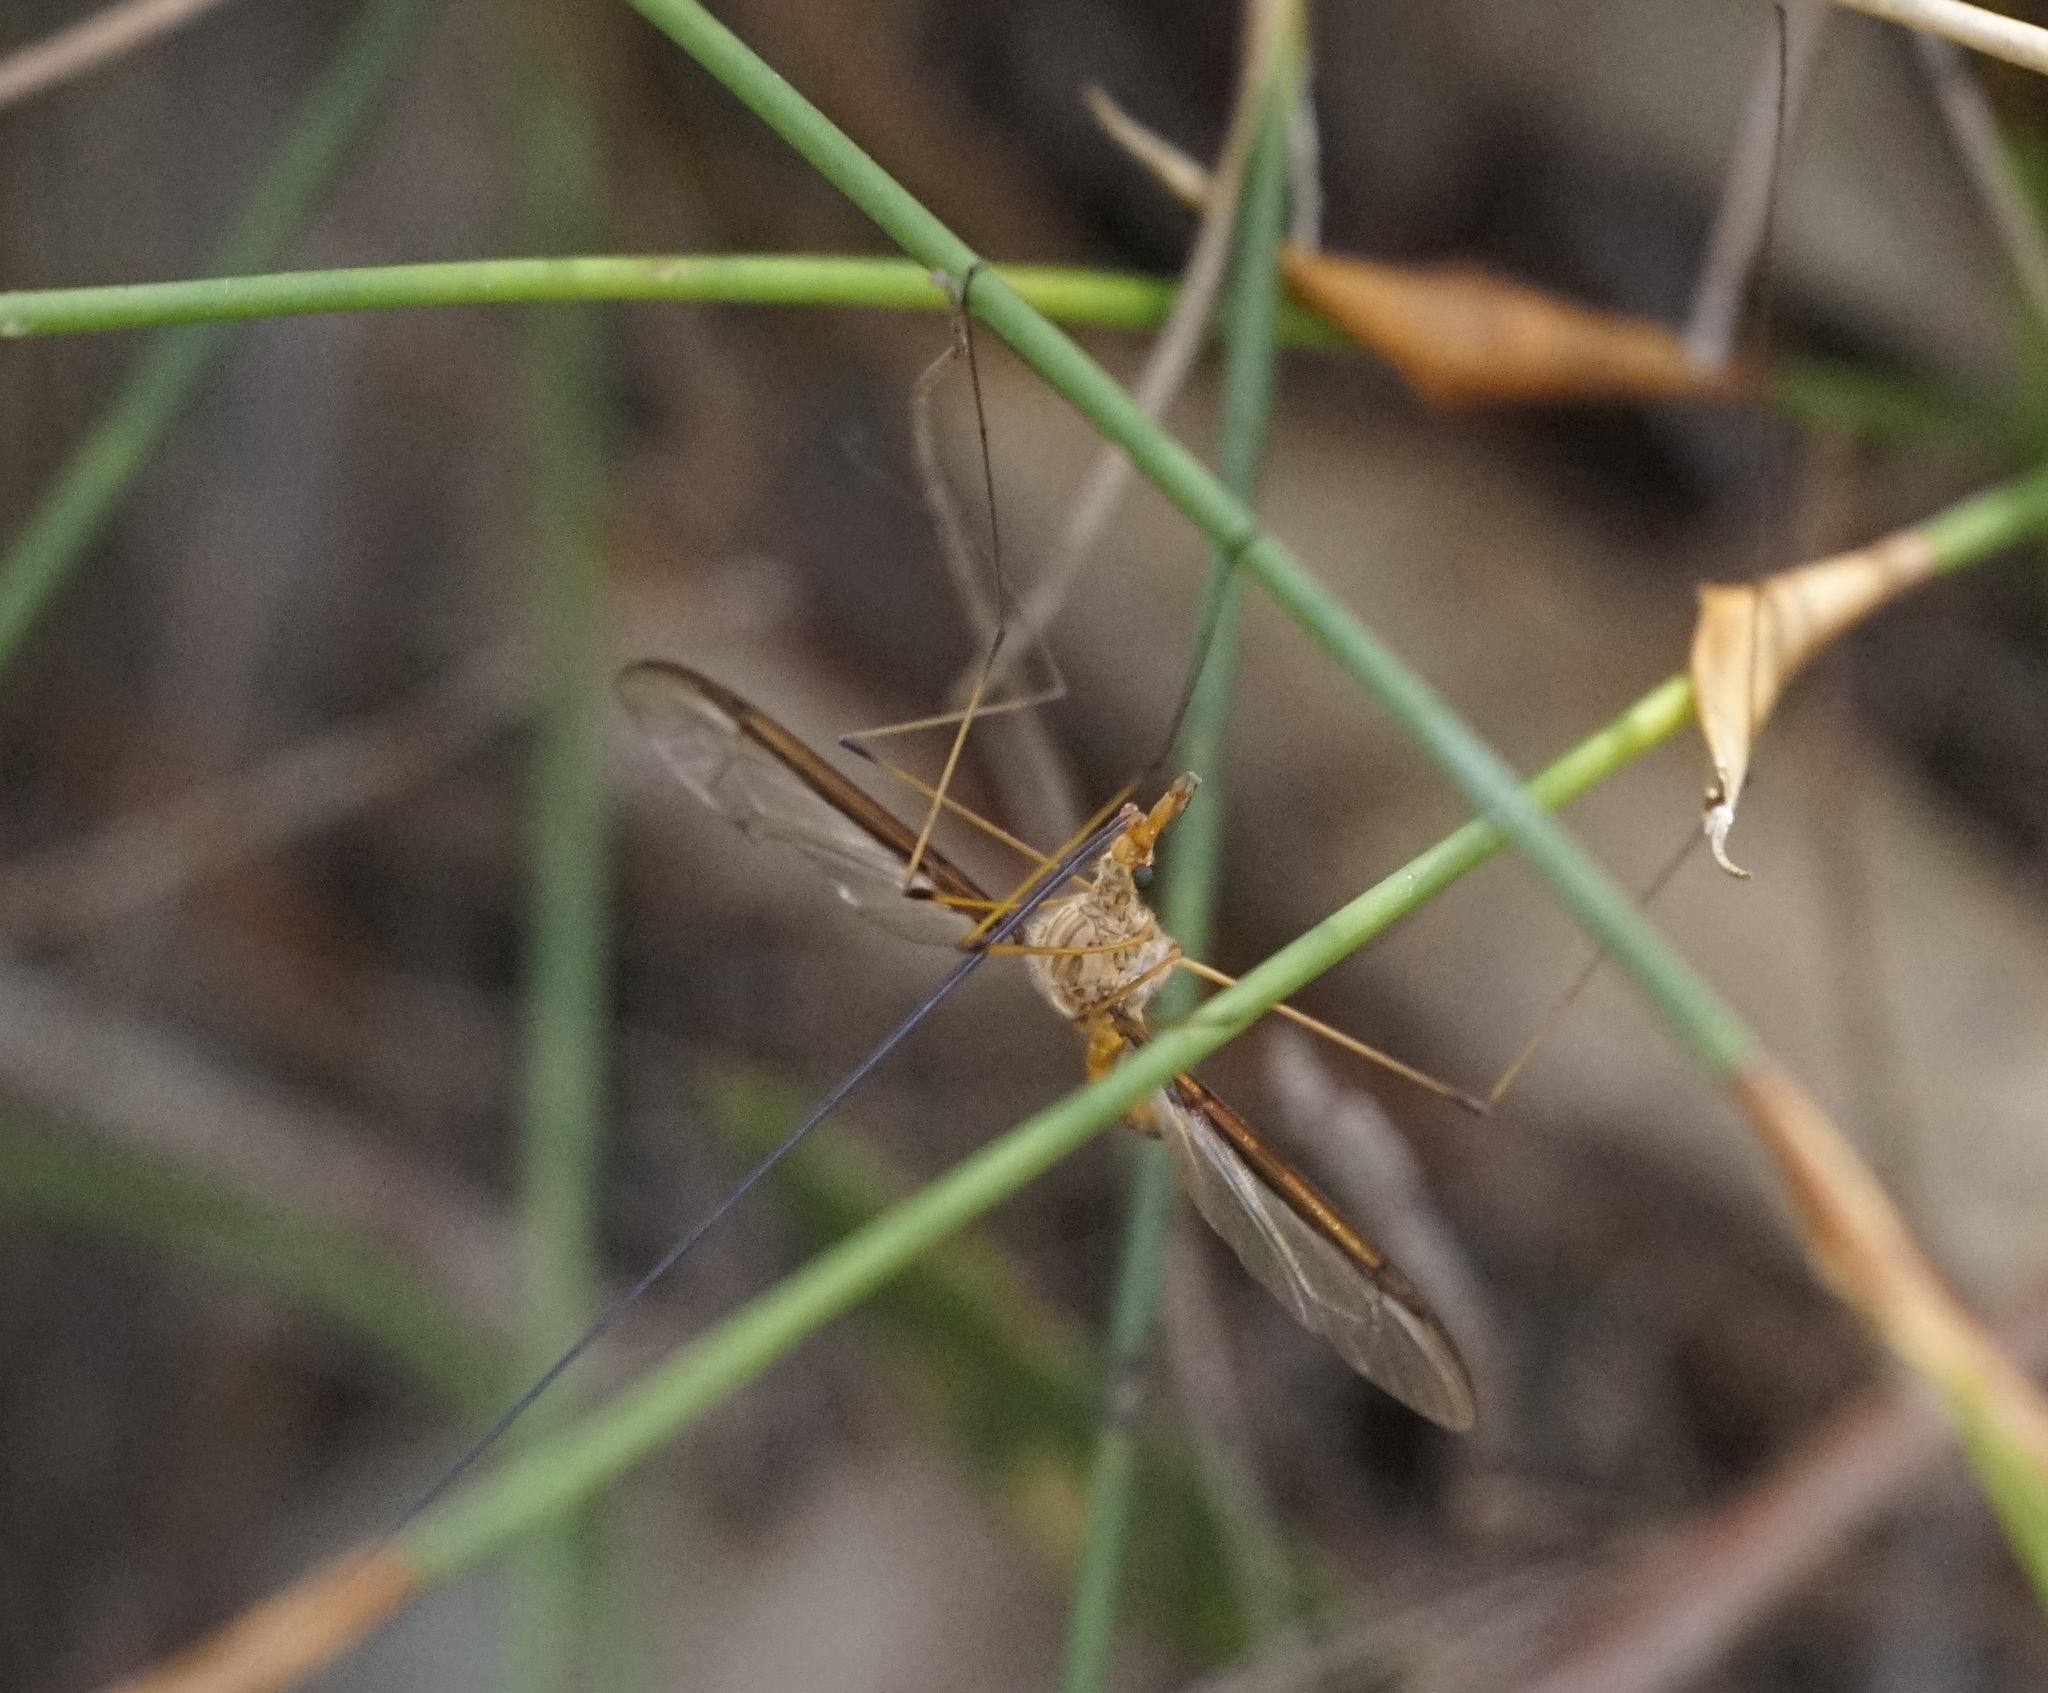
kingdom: Animalia
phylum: Arthropoda
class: Insecta
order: Diptera
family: Tipulidae
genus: Leptotarsus
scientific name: Leptotarsus costalis
